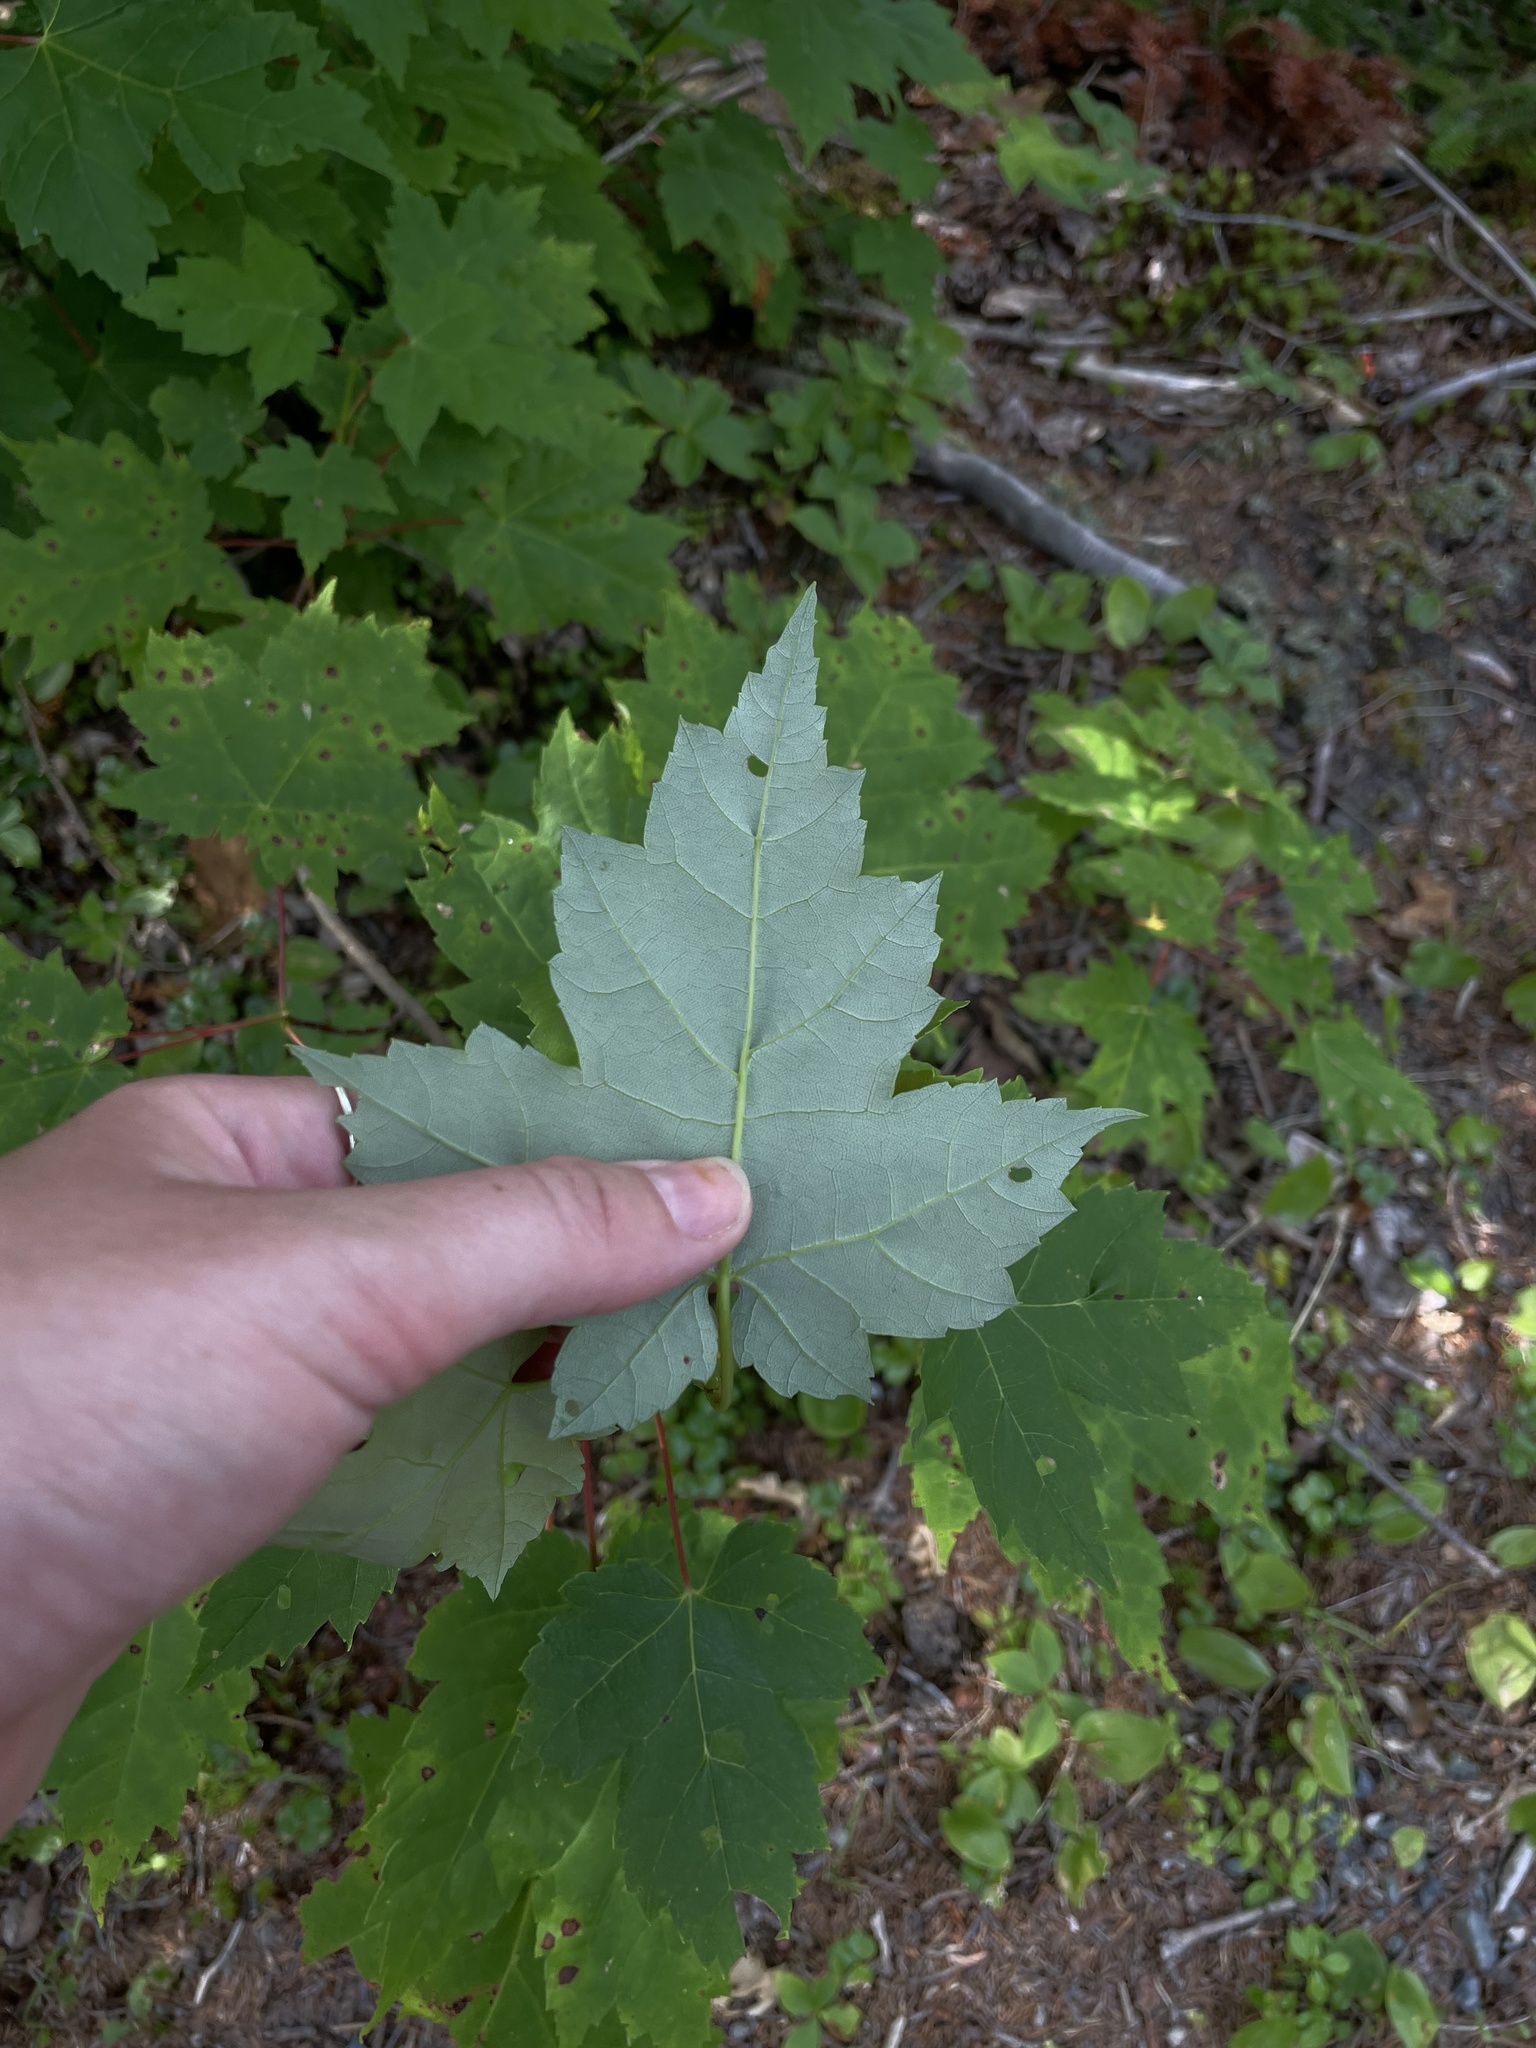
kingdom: Plantae
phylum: Tracheophyta
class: Magnoliopsida
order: Sapindales
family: Sapindaceae
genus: Acer
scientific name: Acer rubrum
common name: Red maple
